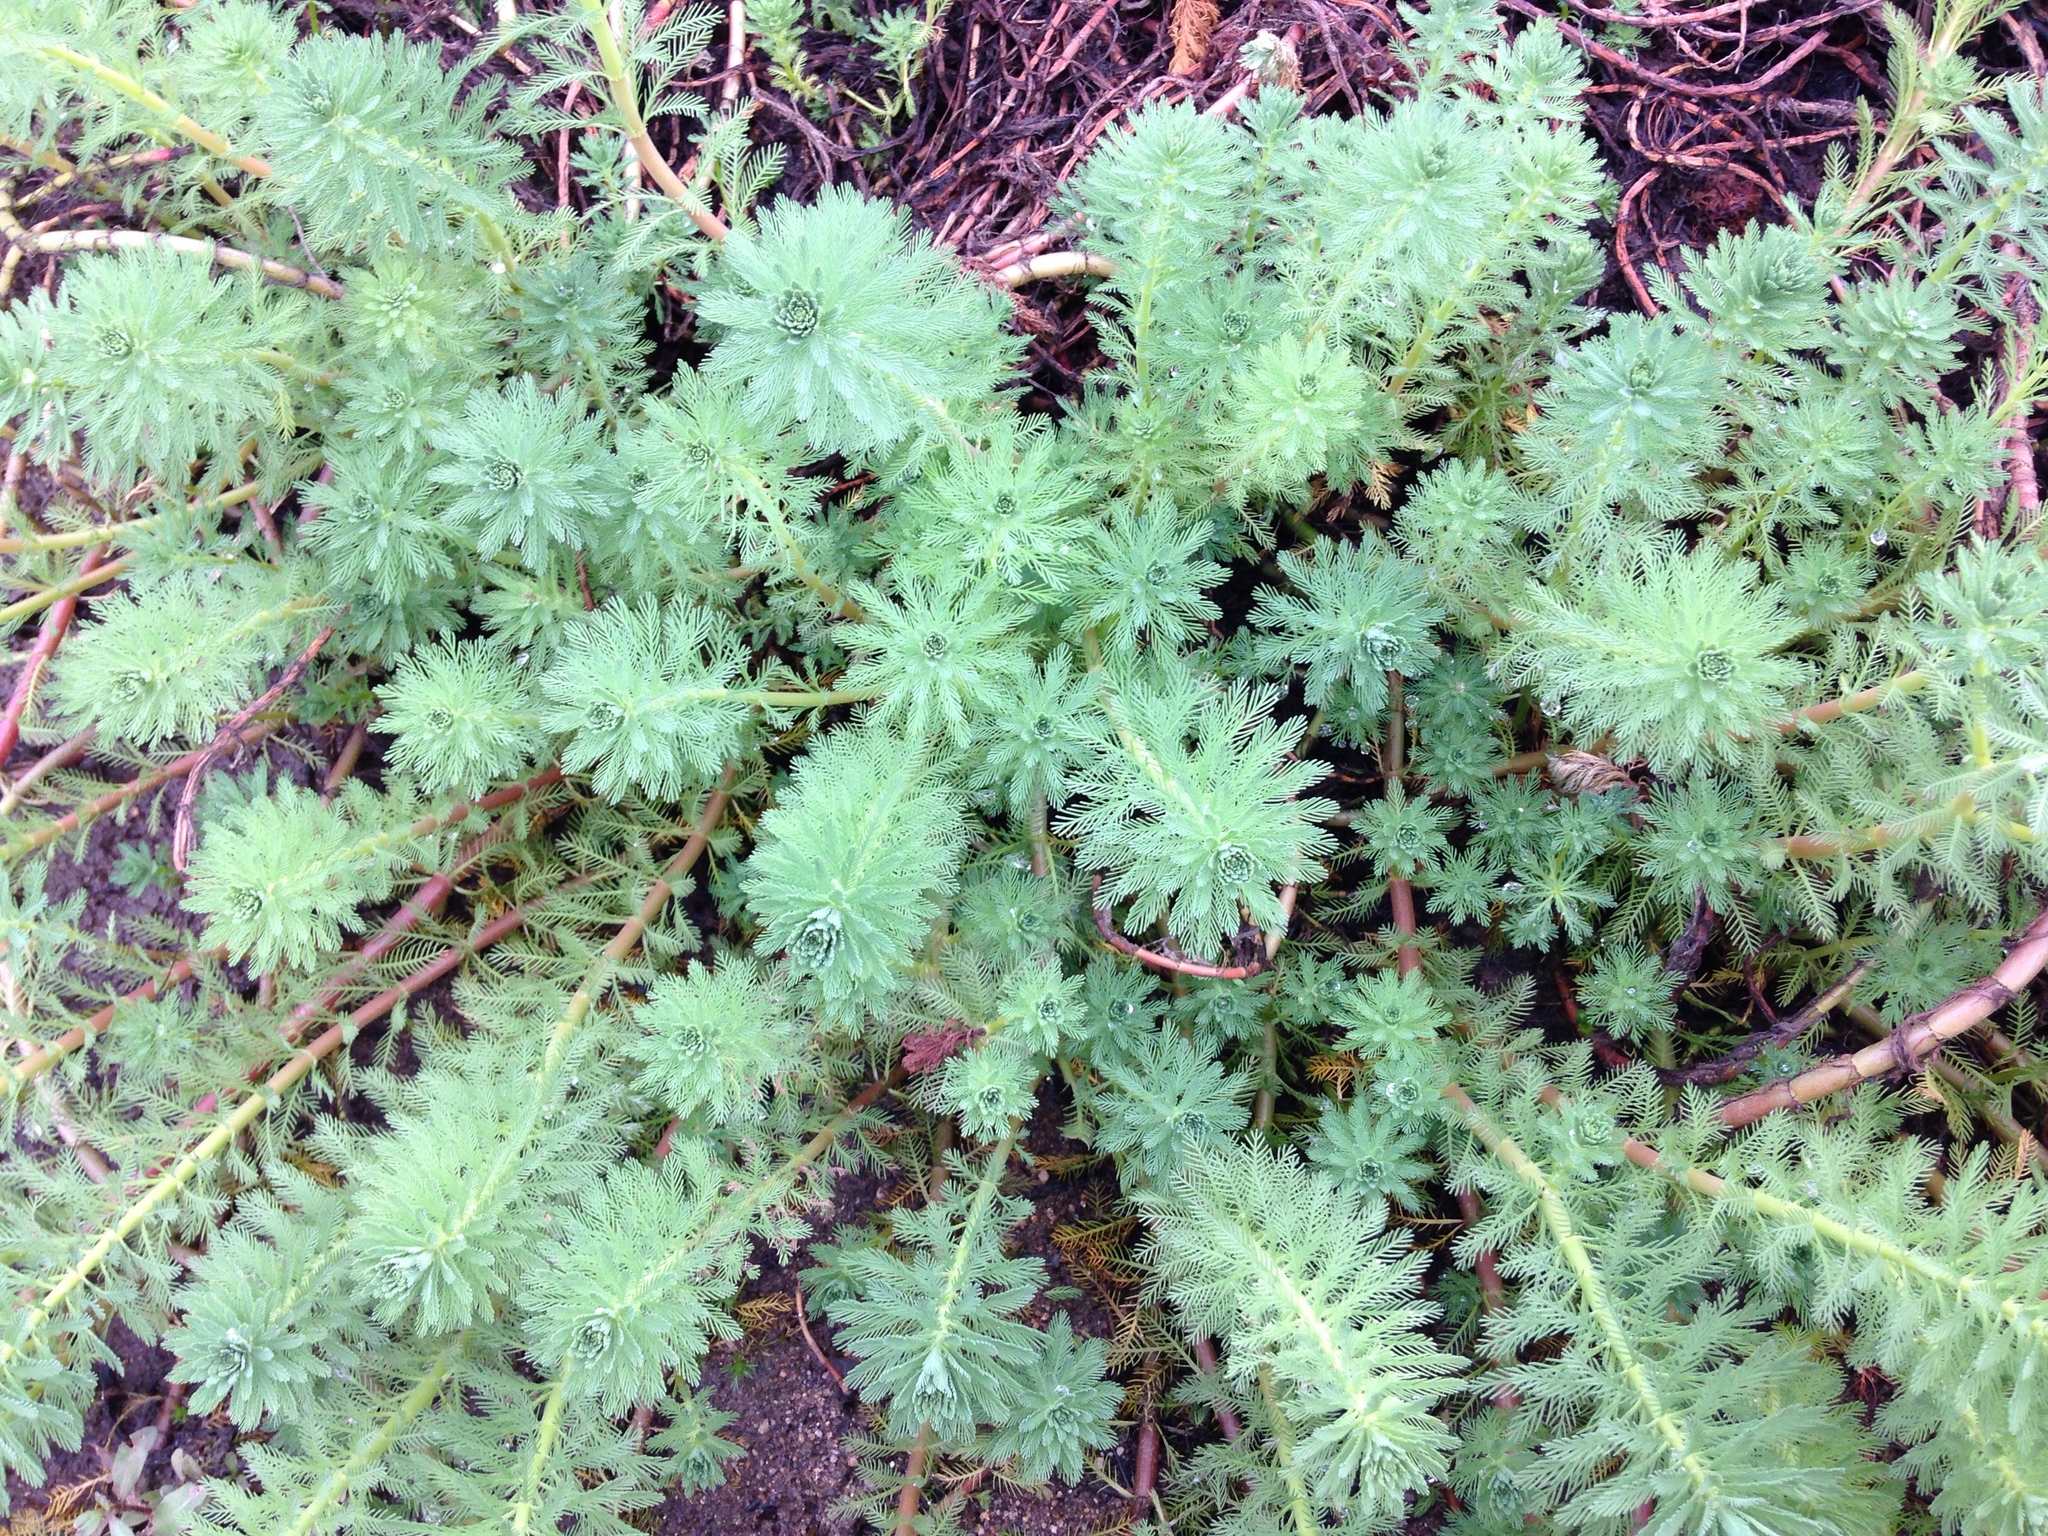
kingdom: Plantae
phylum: Tracheophyta
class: Magnoliopsida
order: Saxifragales
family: Haloragaceae
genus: Myriophyllum
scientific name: Myriophyllum aquaticum
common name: Parrot's feather
